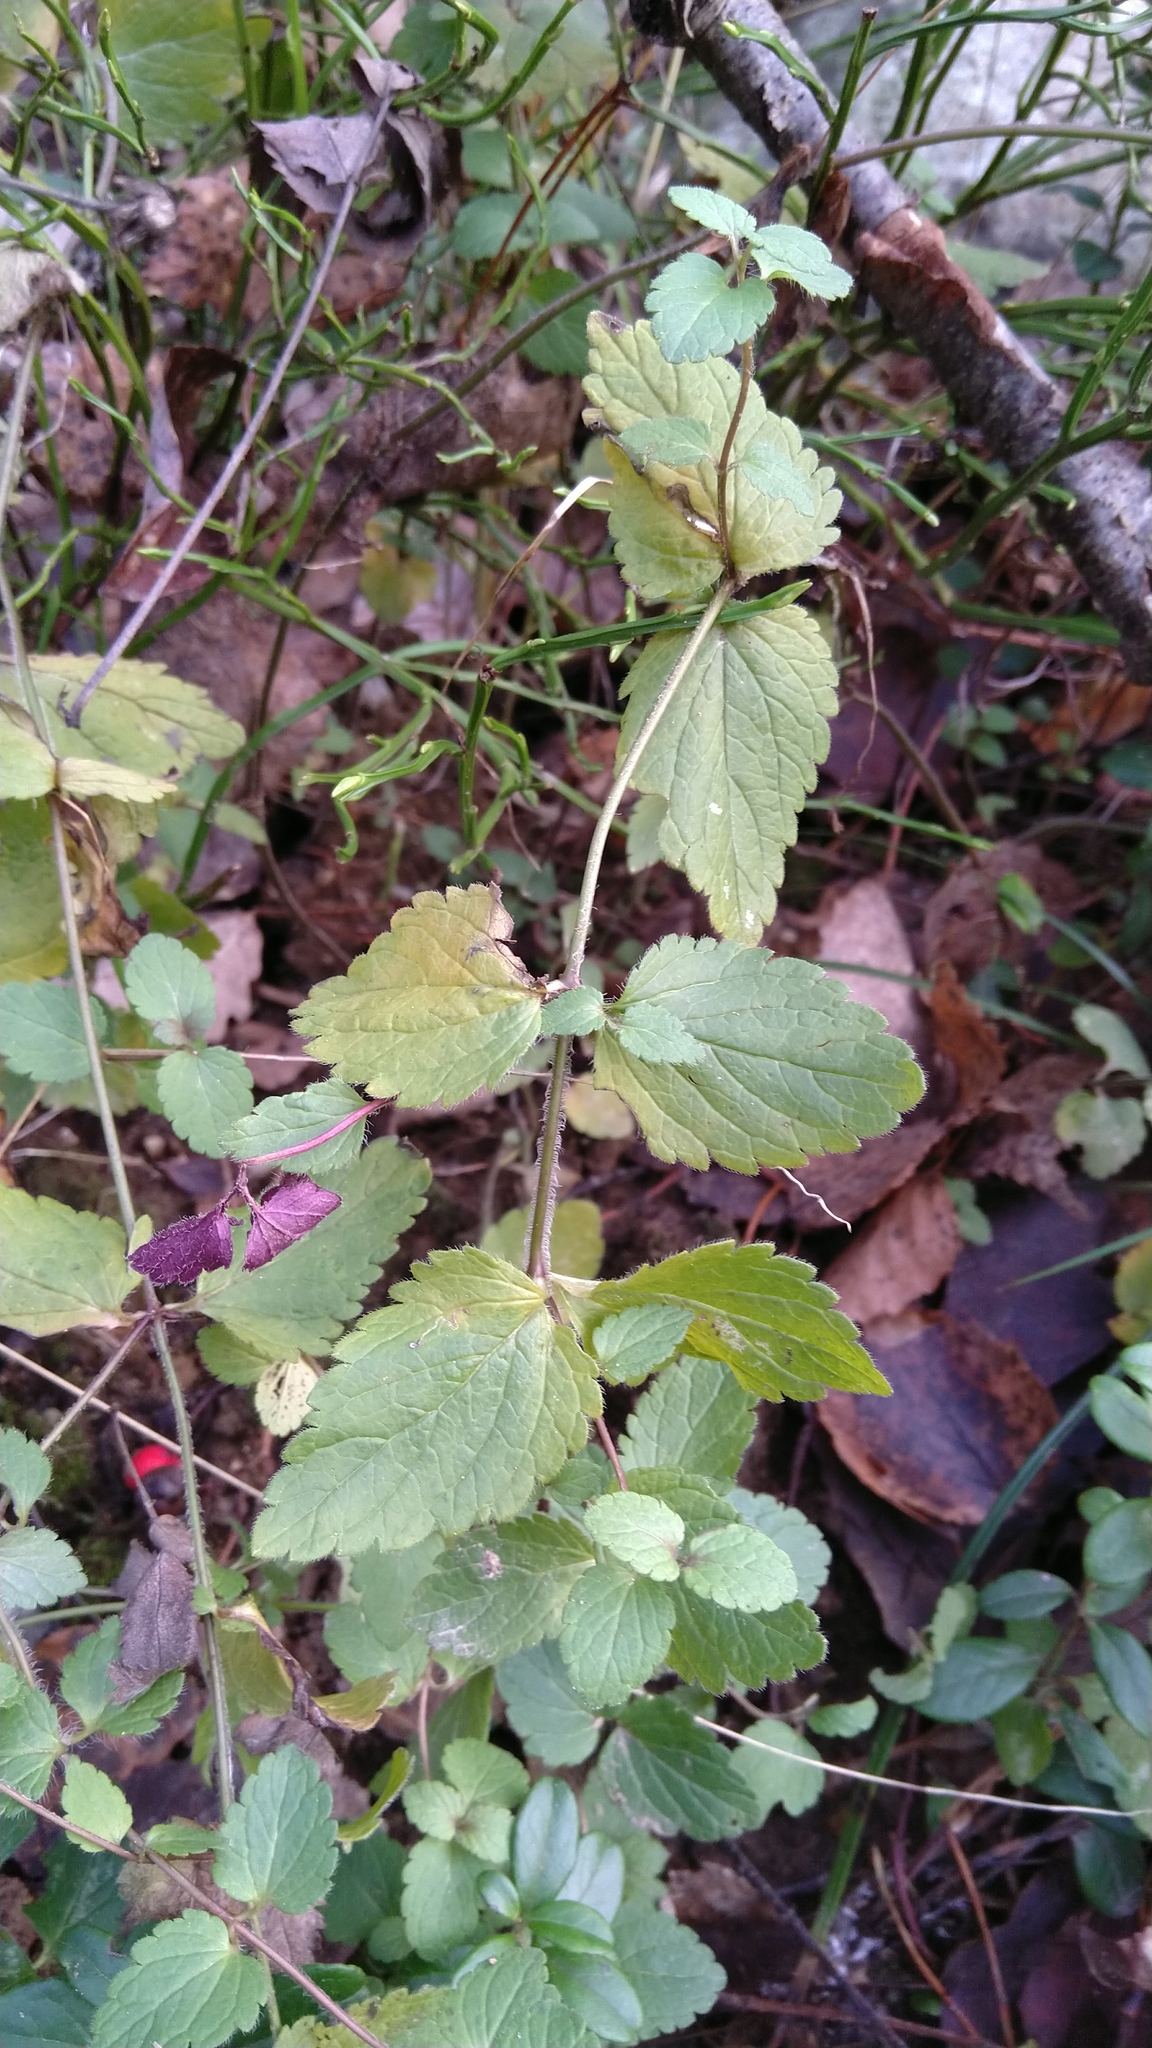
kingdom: Plantae
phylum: Tracheophyta
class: Magnoliopsida
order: Lamiales
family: Plantaginaceae
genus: Veronica
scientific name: Veronica chamaedrys
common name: Germander speedwell
